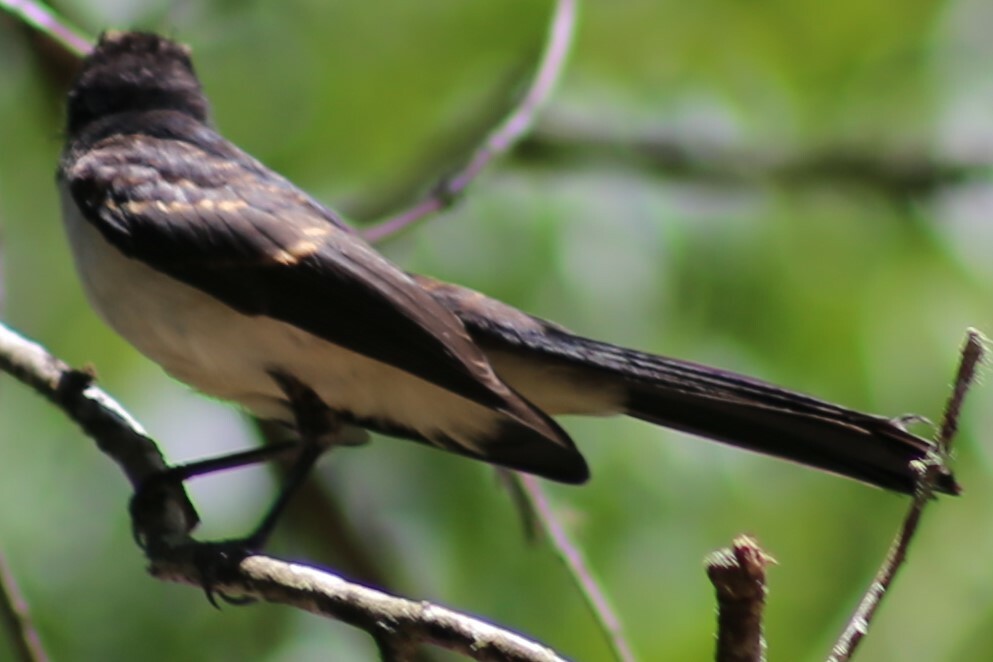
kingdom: Animalia
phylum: Chordata
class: Aves
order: Passeriformes
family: Campephagidae
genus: Lalage
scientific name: Lalage leucomela
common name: Varied triller
